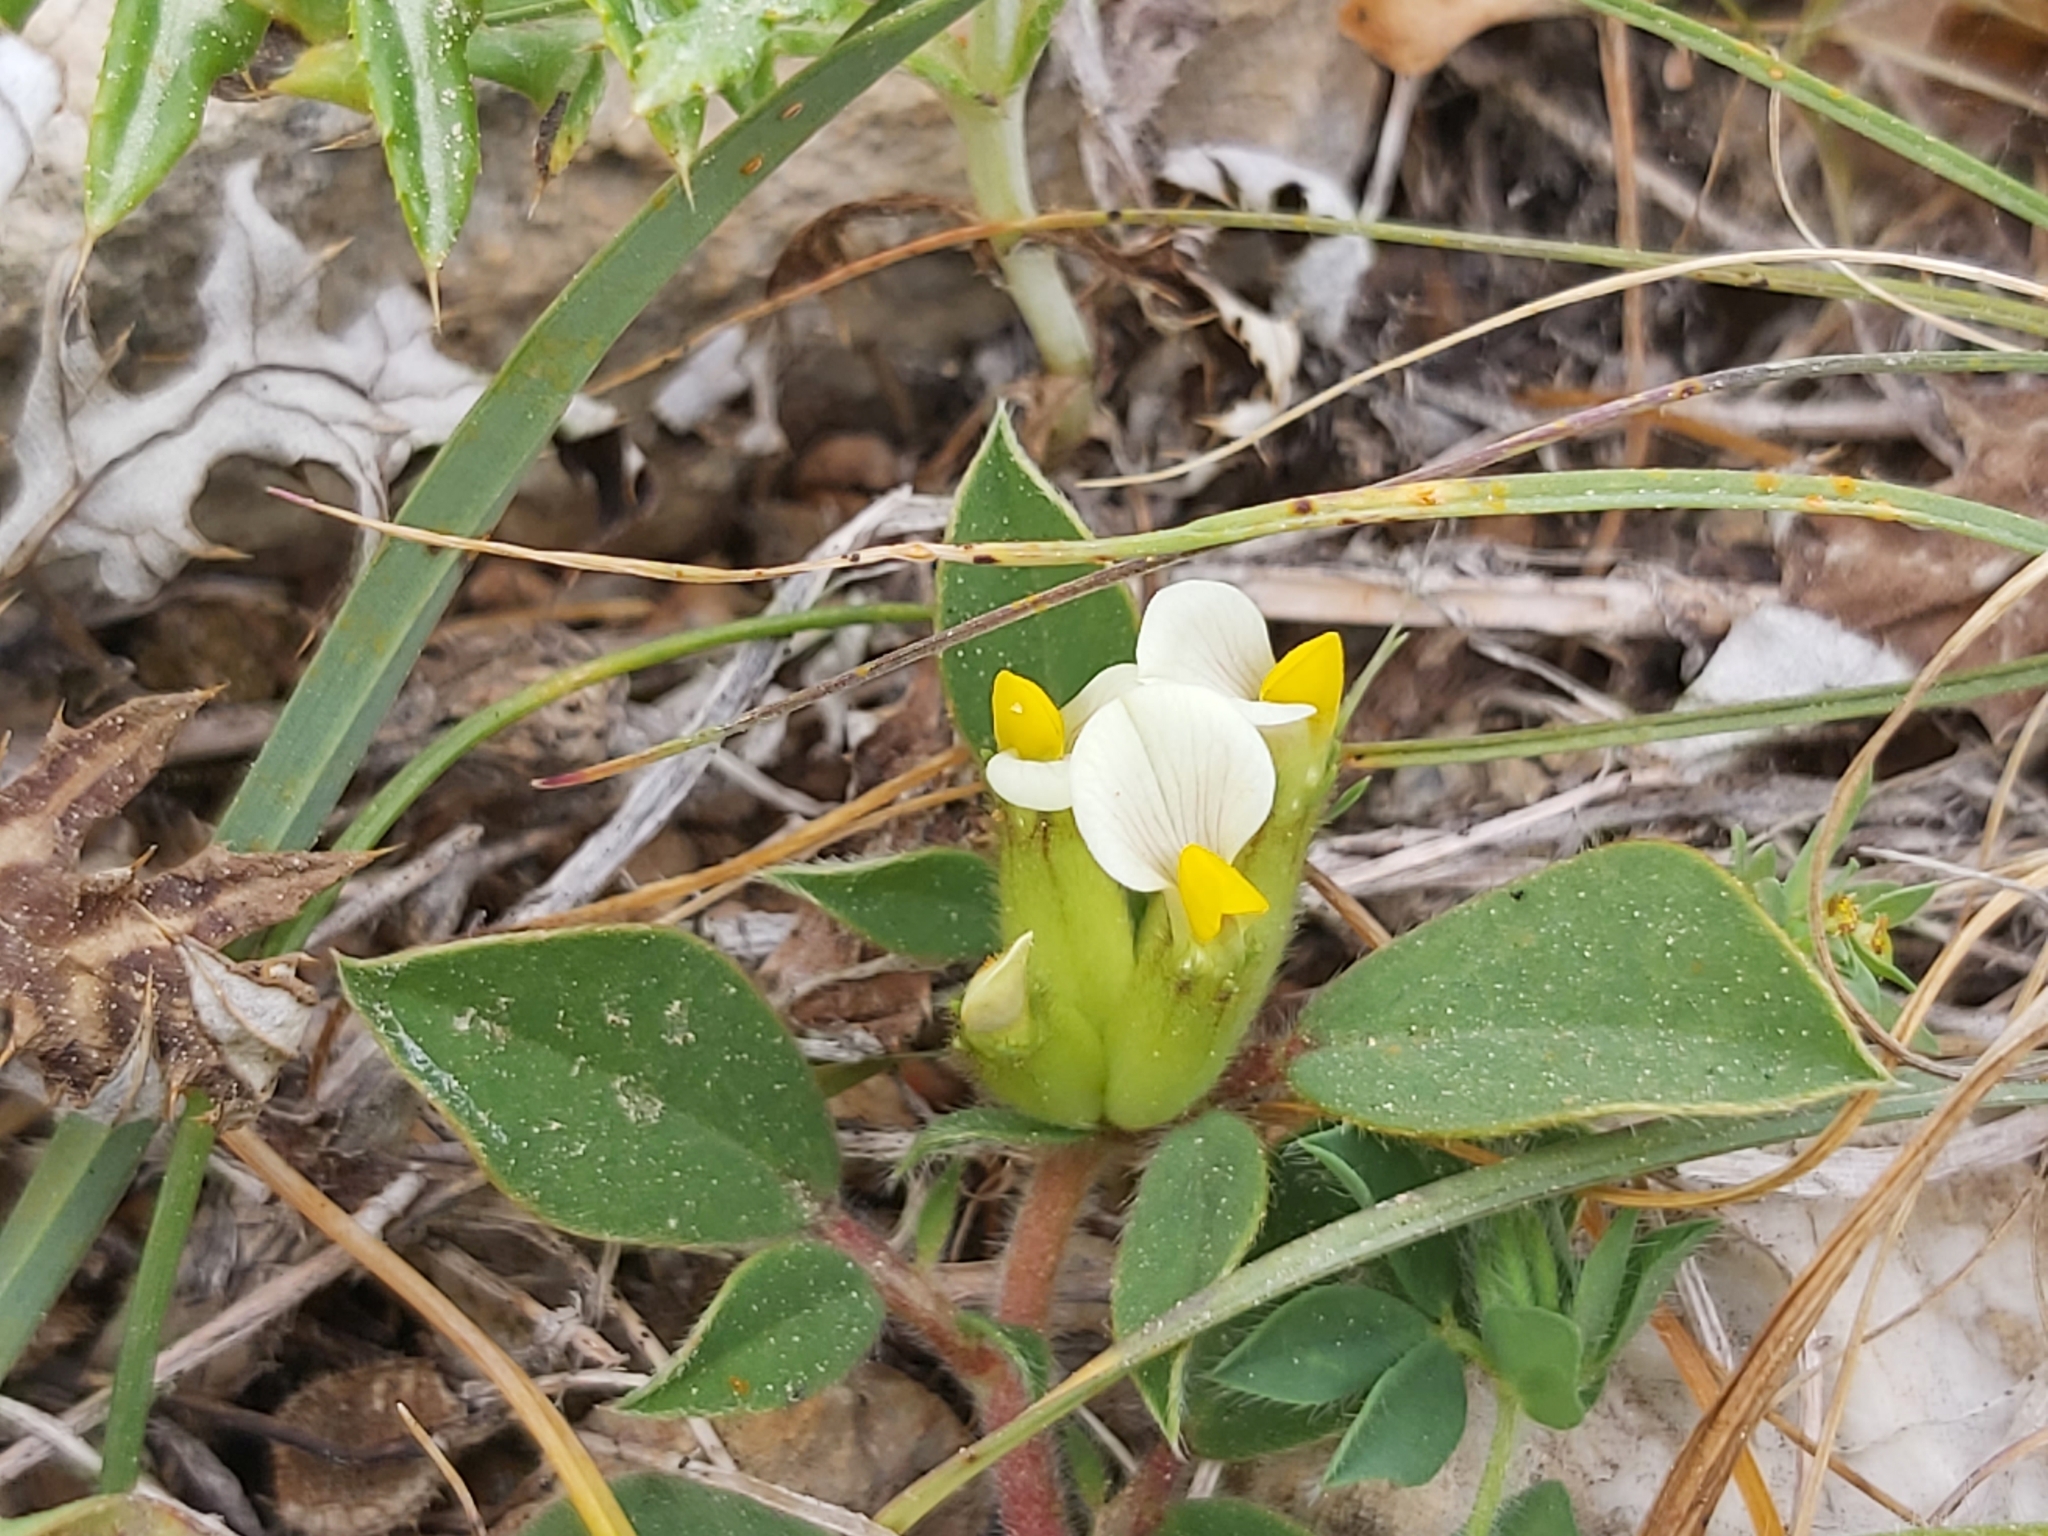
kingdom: Plantae
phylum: Tracheophyta
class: Magnoliopsida
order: Fabales
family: Fabaceae
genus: Tripodion
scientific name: Tripodion tetraphyllum
